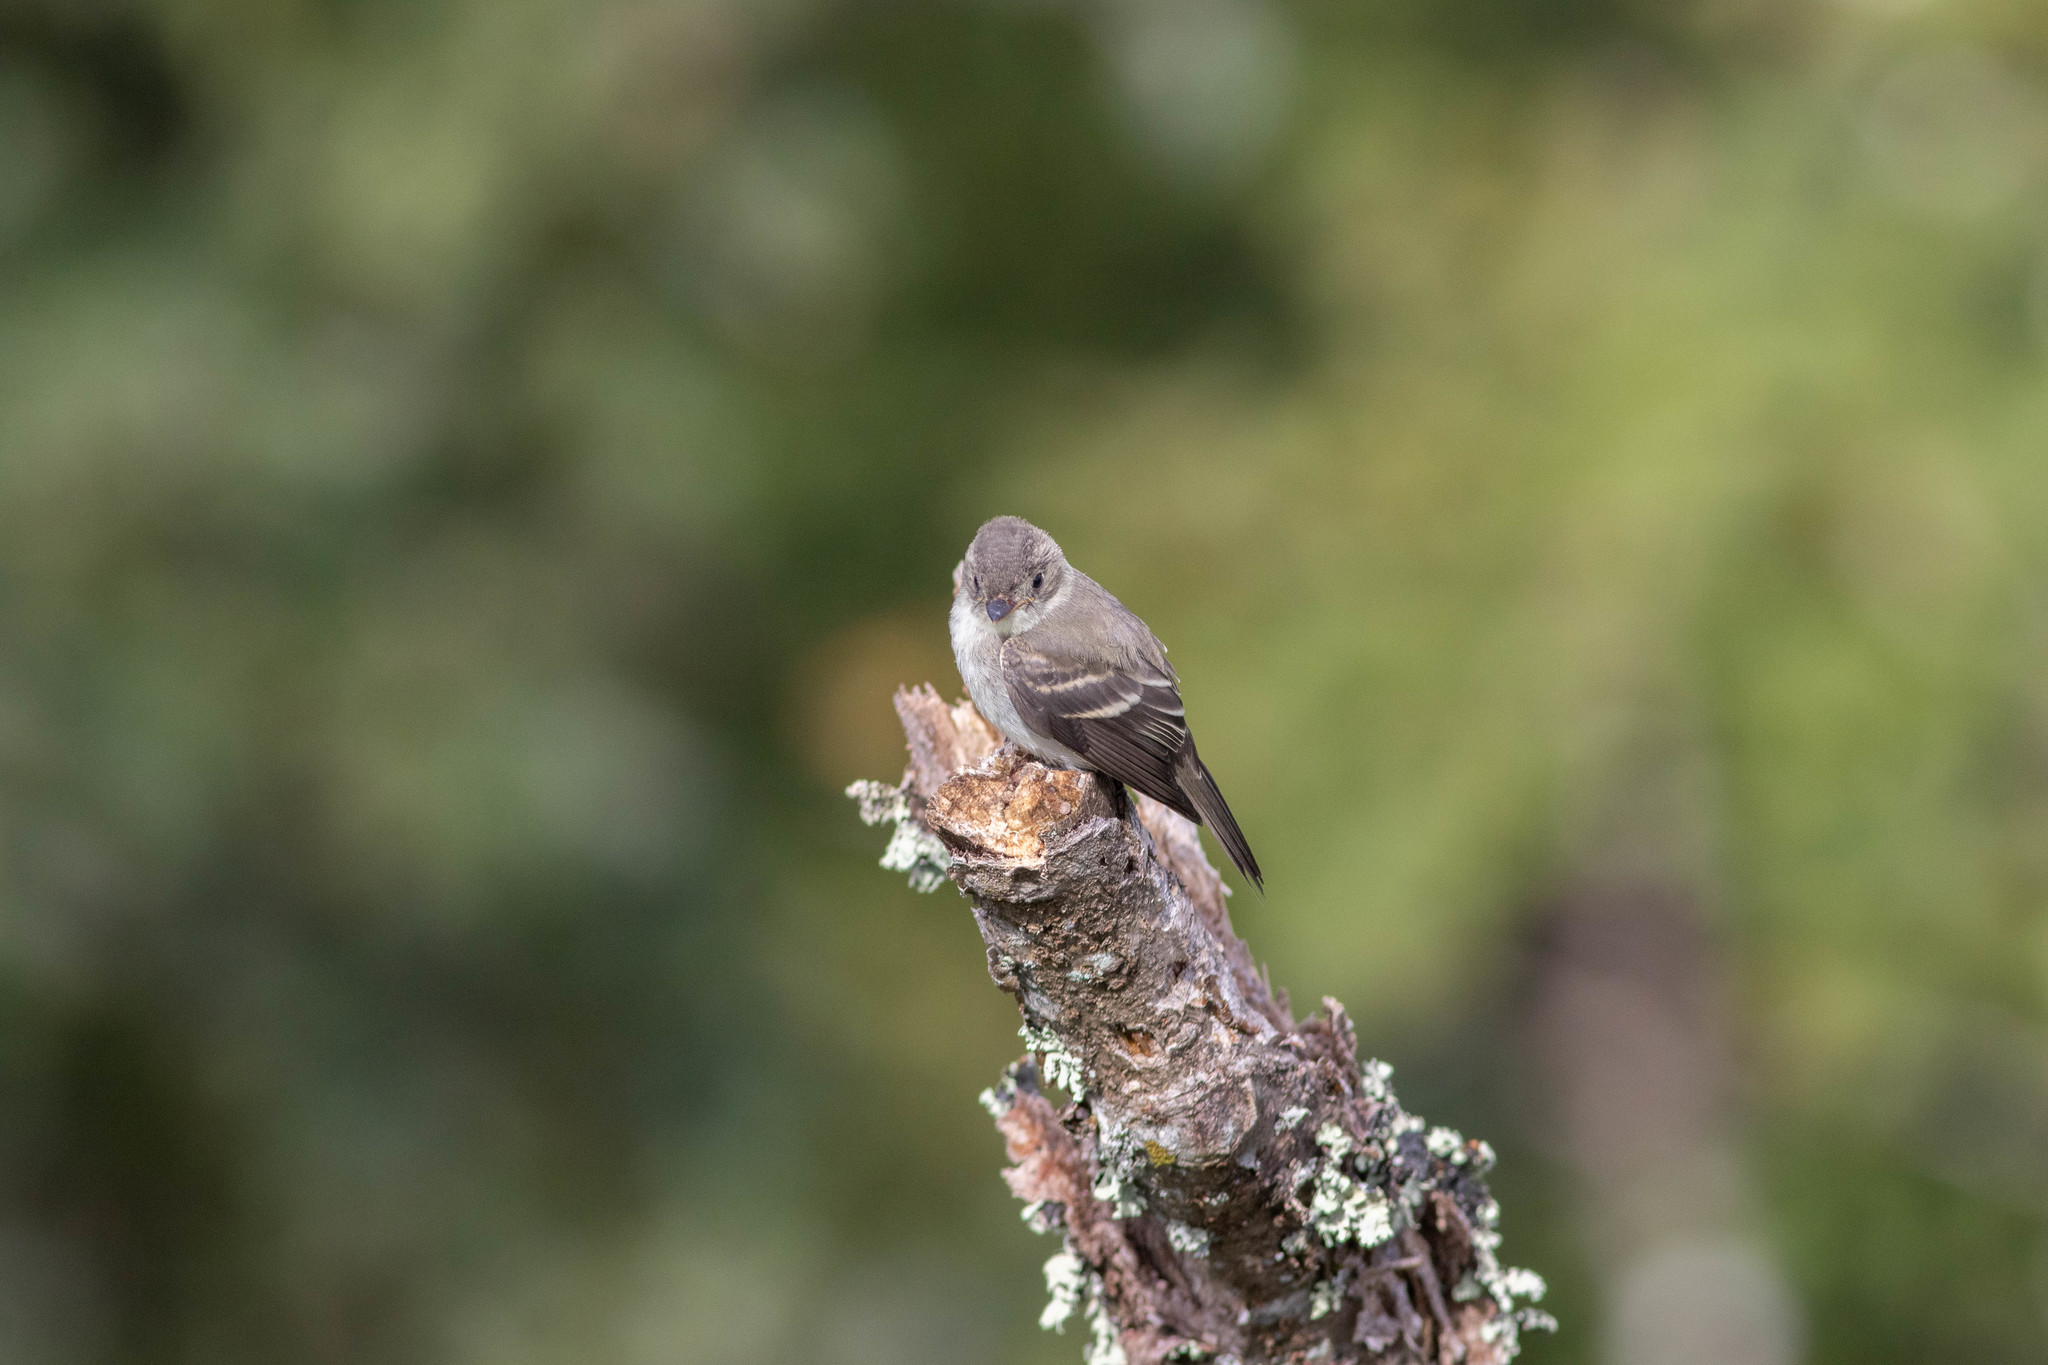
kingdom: Animalia
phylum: Chordata
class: Aves
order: Passeriformes
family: Tyrannidae
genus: Contopus
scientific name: Contopus virens
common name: Eastern wood-pewee
